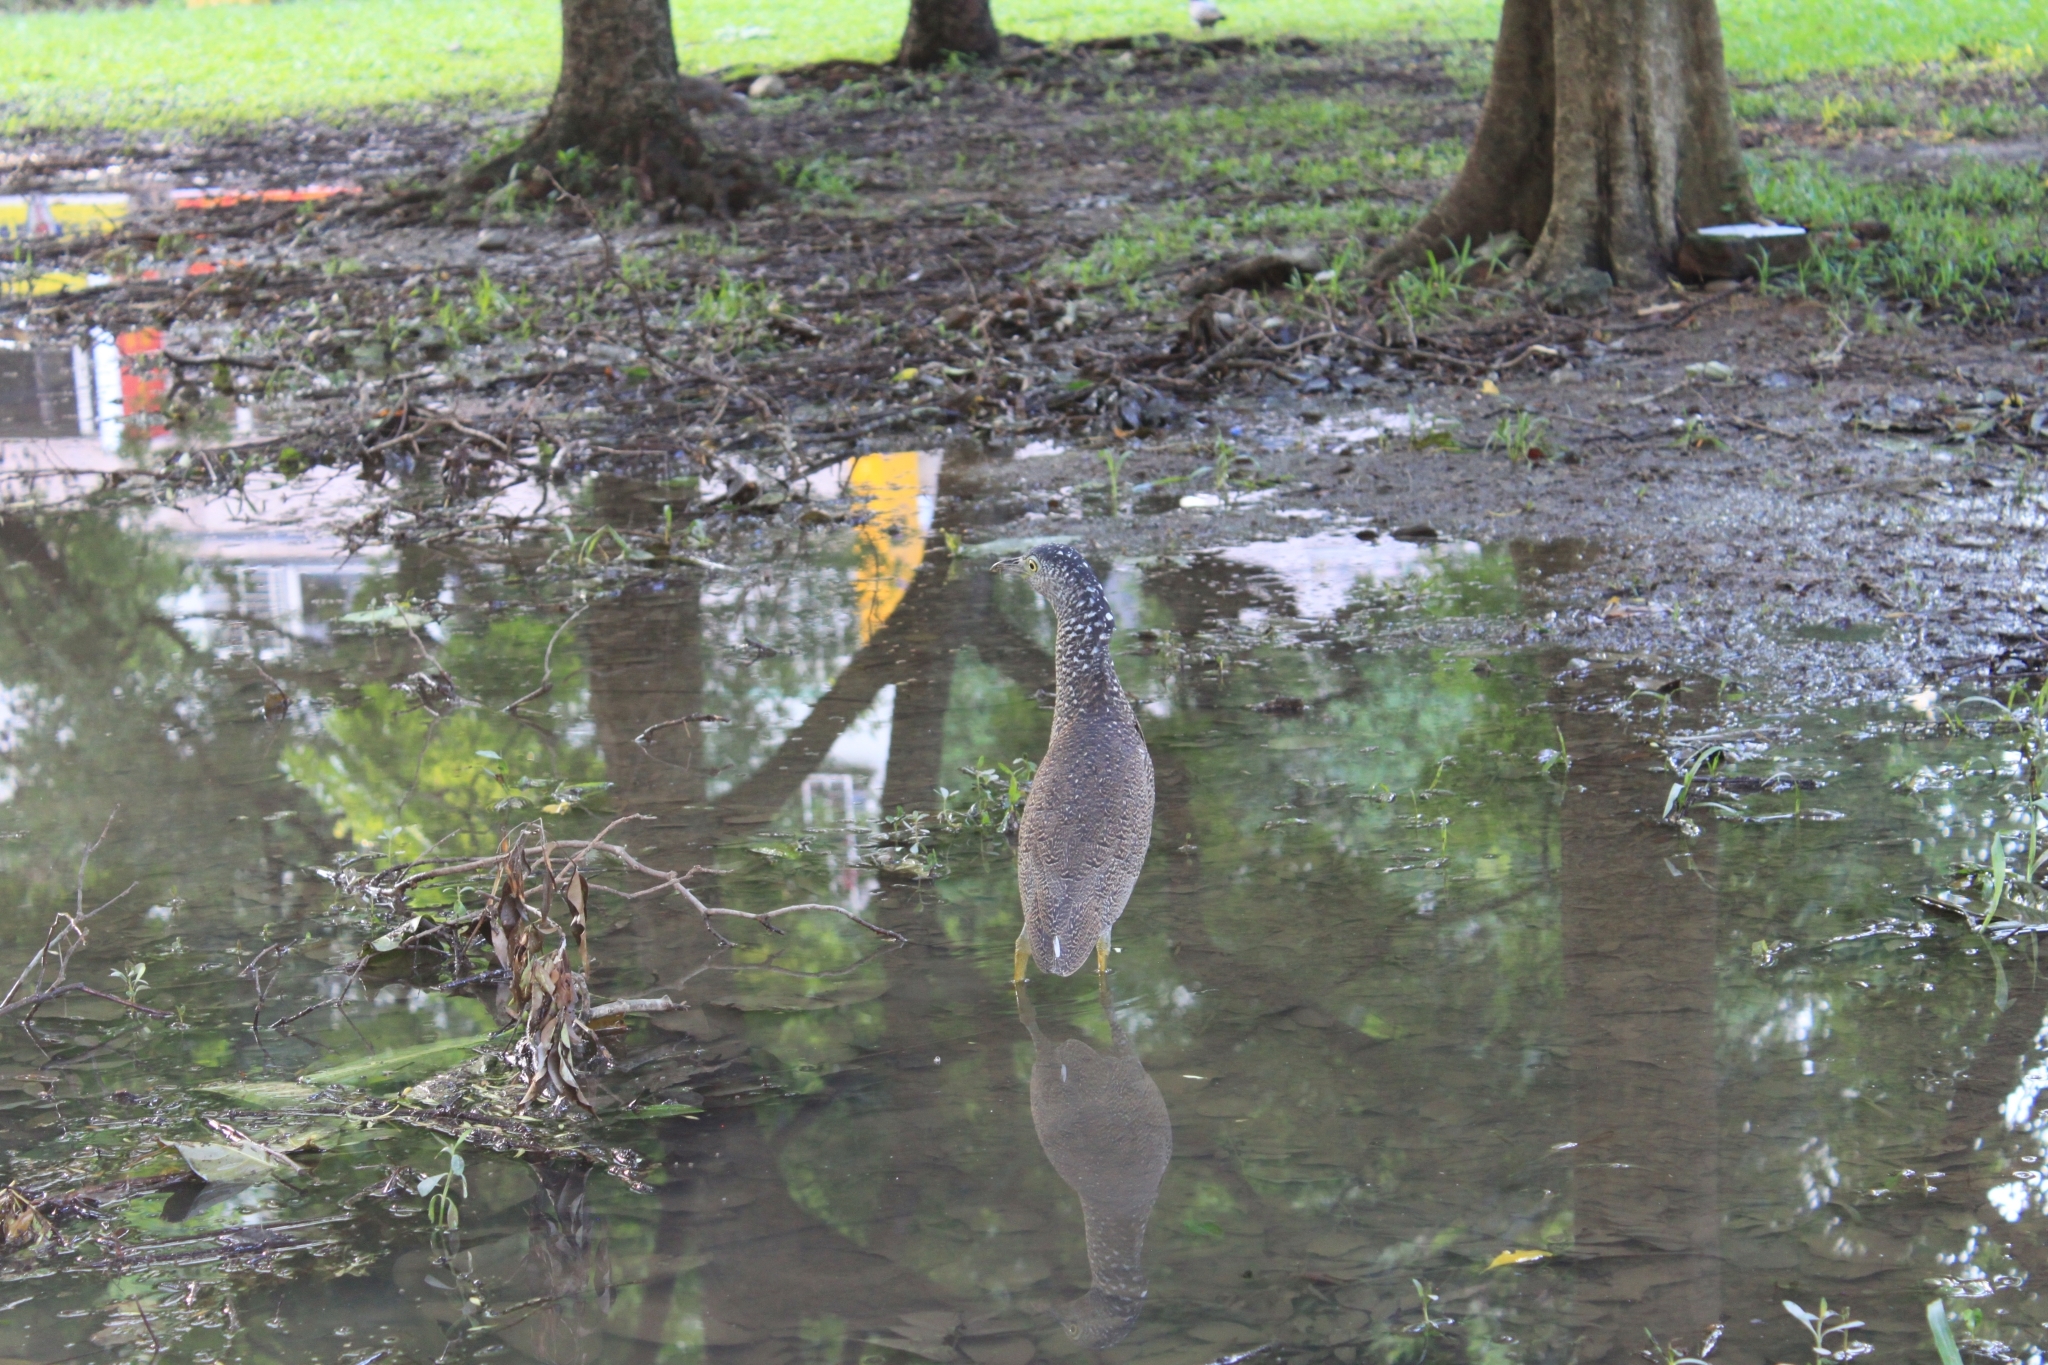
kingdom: Animalia
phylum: Chordata
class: Aves
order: Pelecaniformes
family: Ardeidae
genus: Gorsachius
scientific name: Gorsachius melanolophus
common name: Malayan night heron
